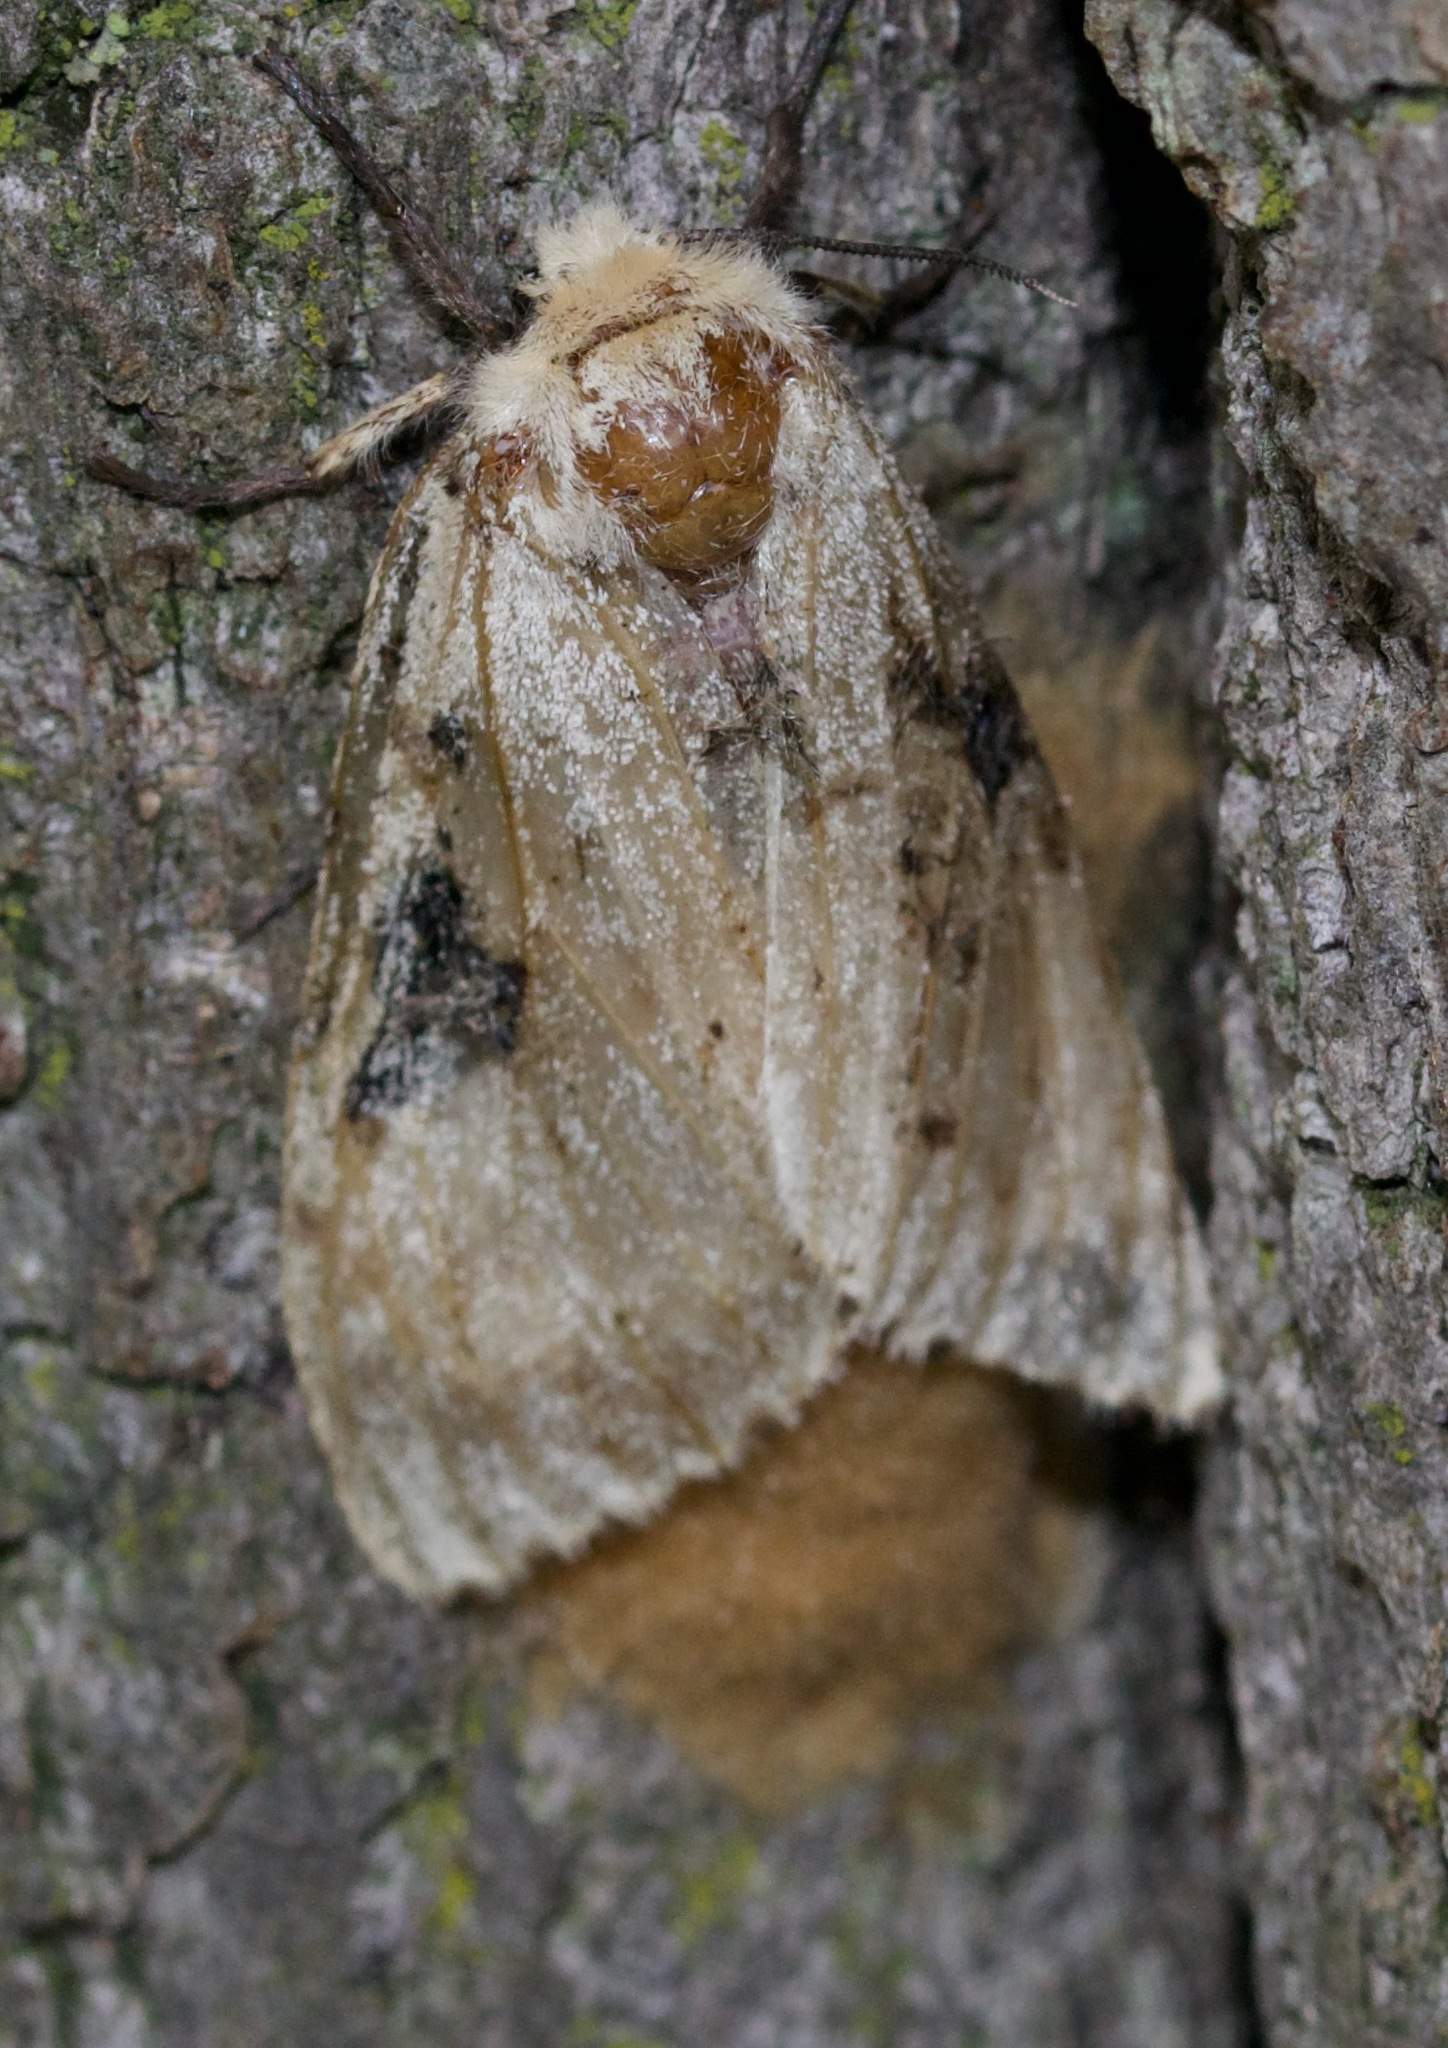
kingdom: Animalia
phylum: Arthropoda
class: Insecta
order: Lepidoptera
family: Erebidae
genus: Lymantria
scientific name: Lymantria dispar
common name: Gypsy moth
